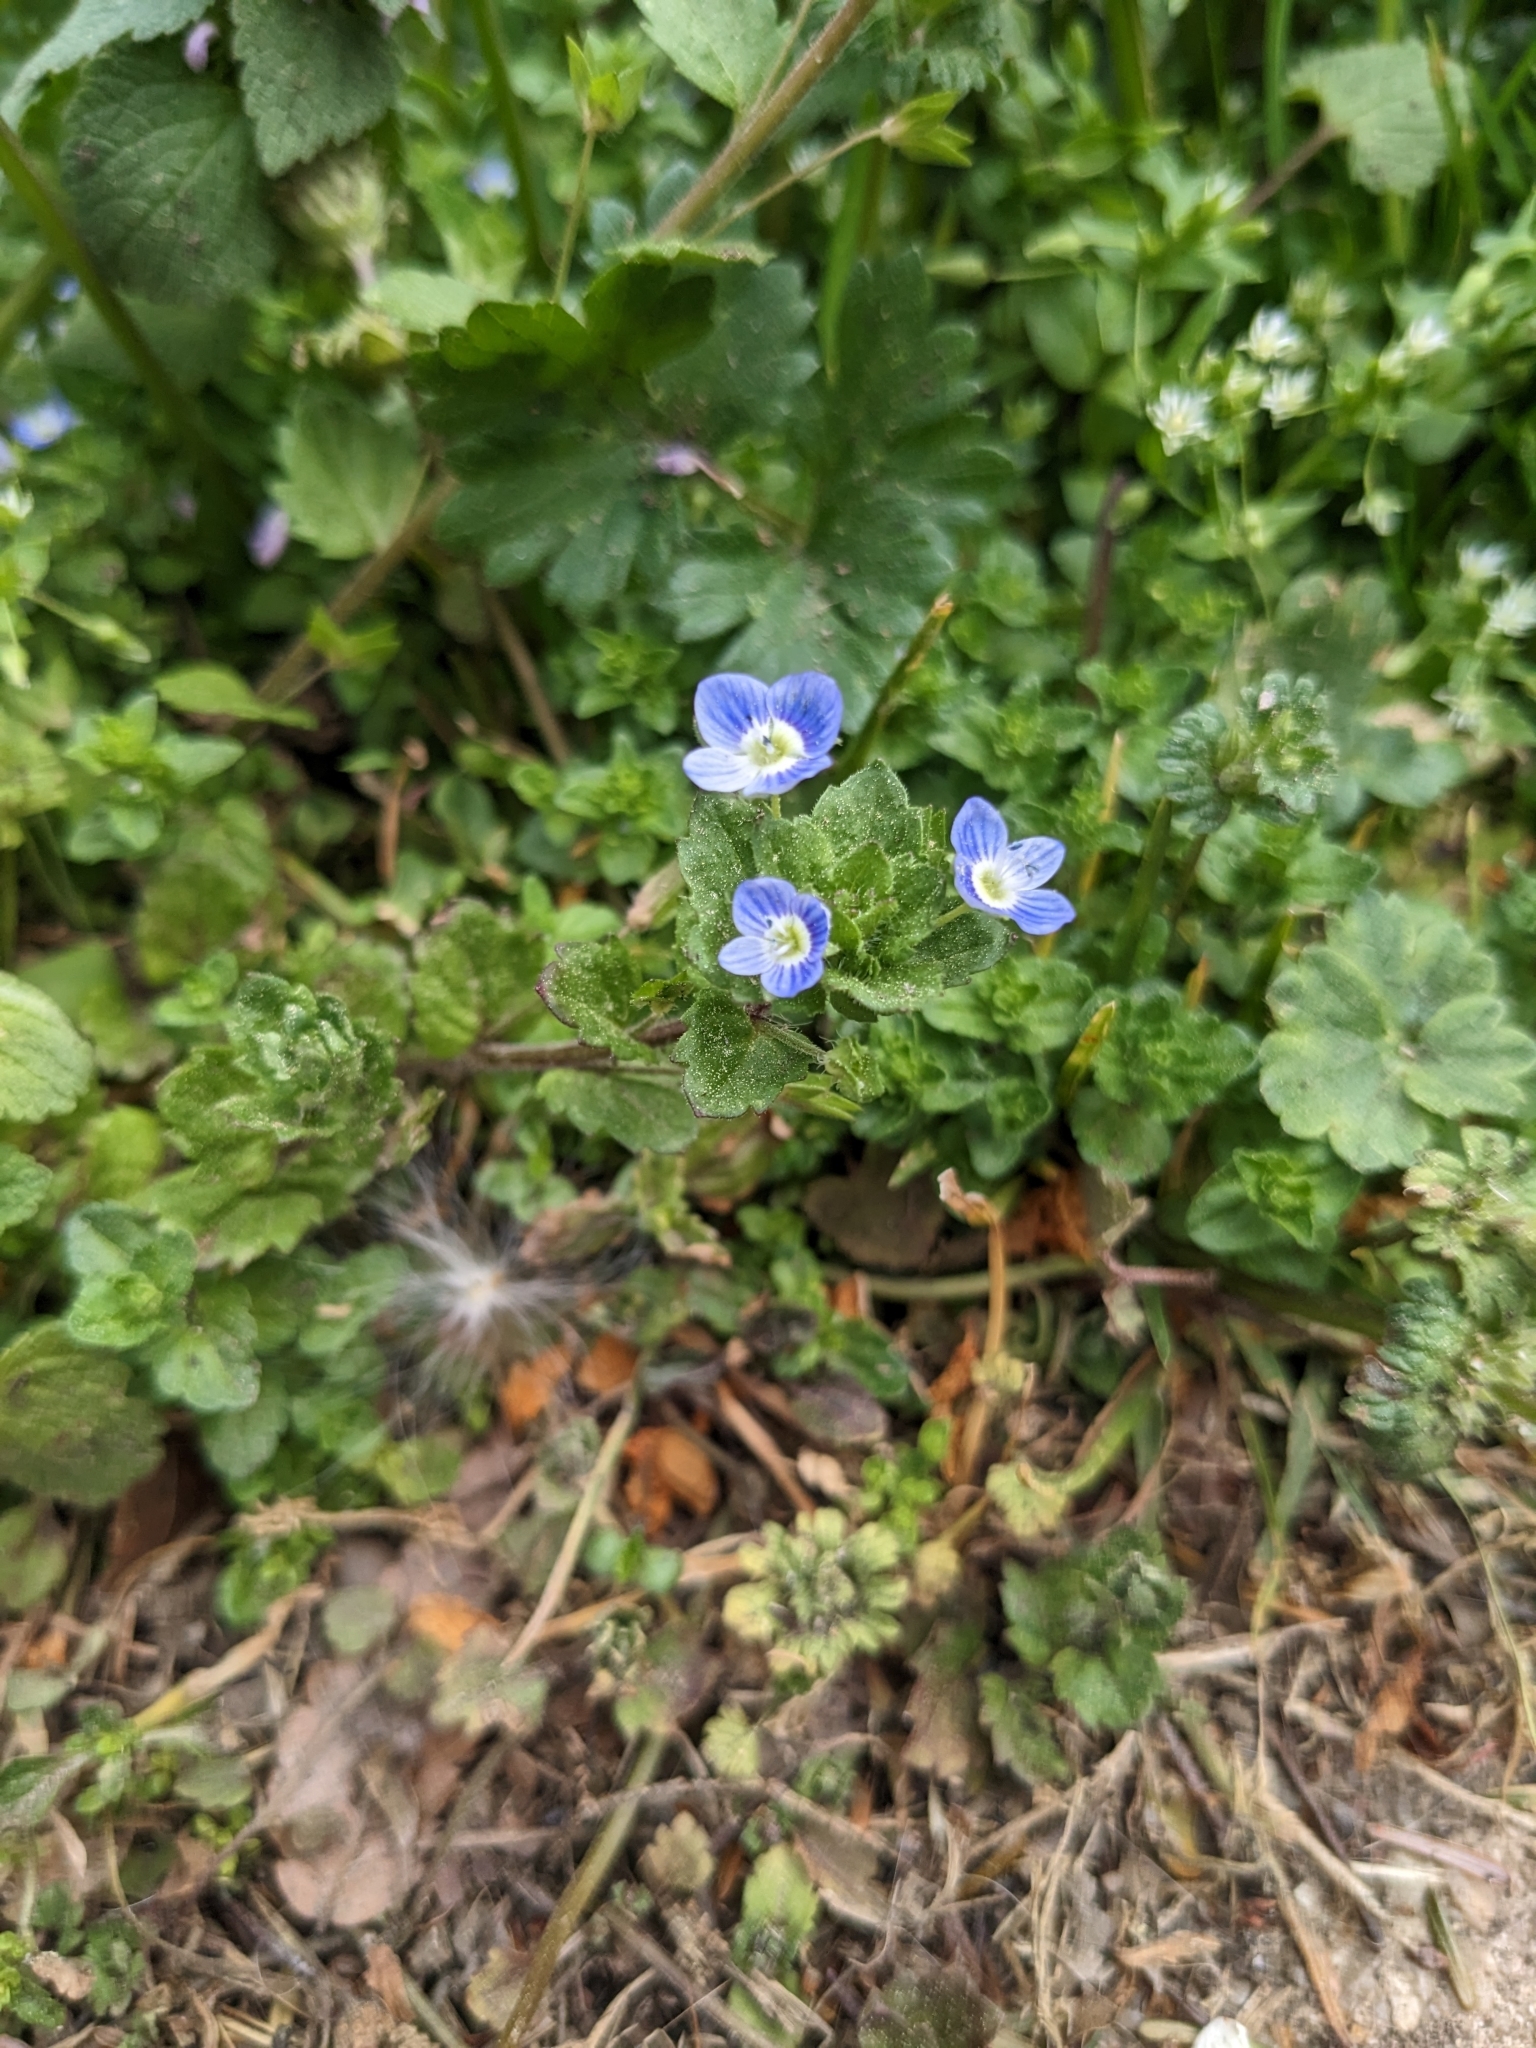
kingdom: Plantae
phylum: Tracheophyta
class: Magnoliopsida
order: Lamiales
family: Plantaginaceae
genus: Veronica
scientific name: Veronica persica
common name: Common field-speedwell
